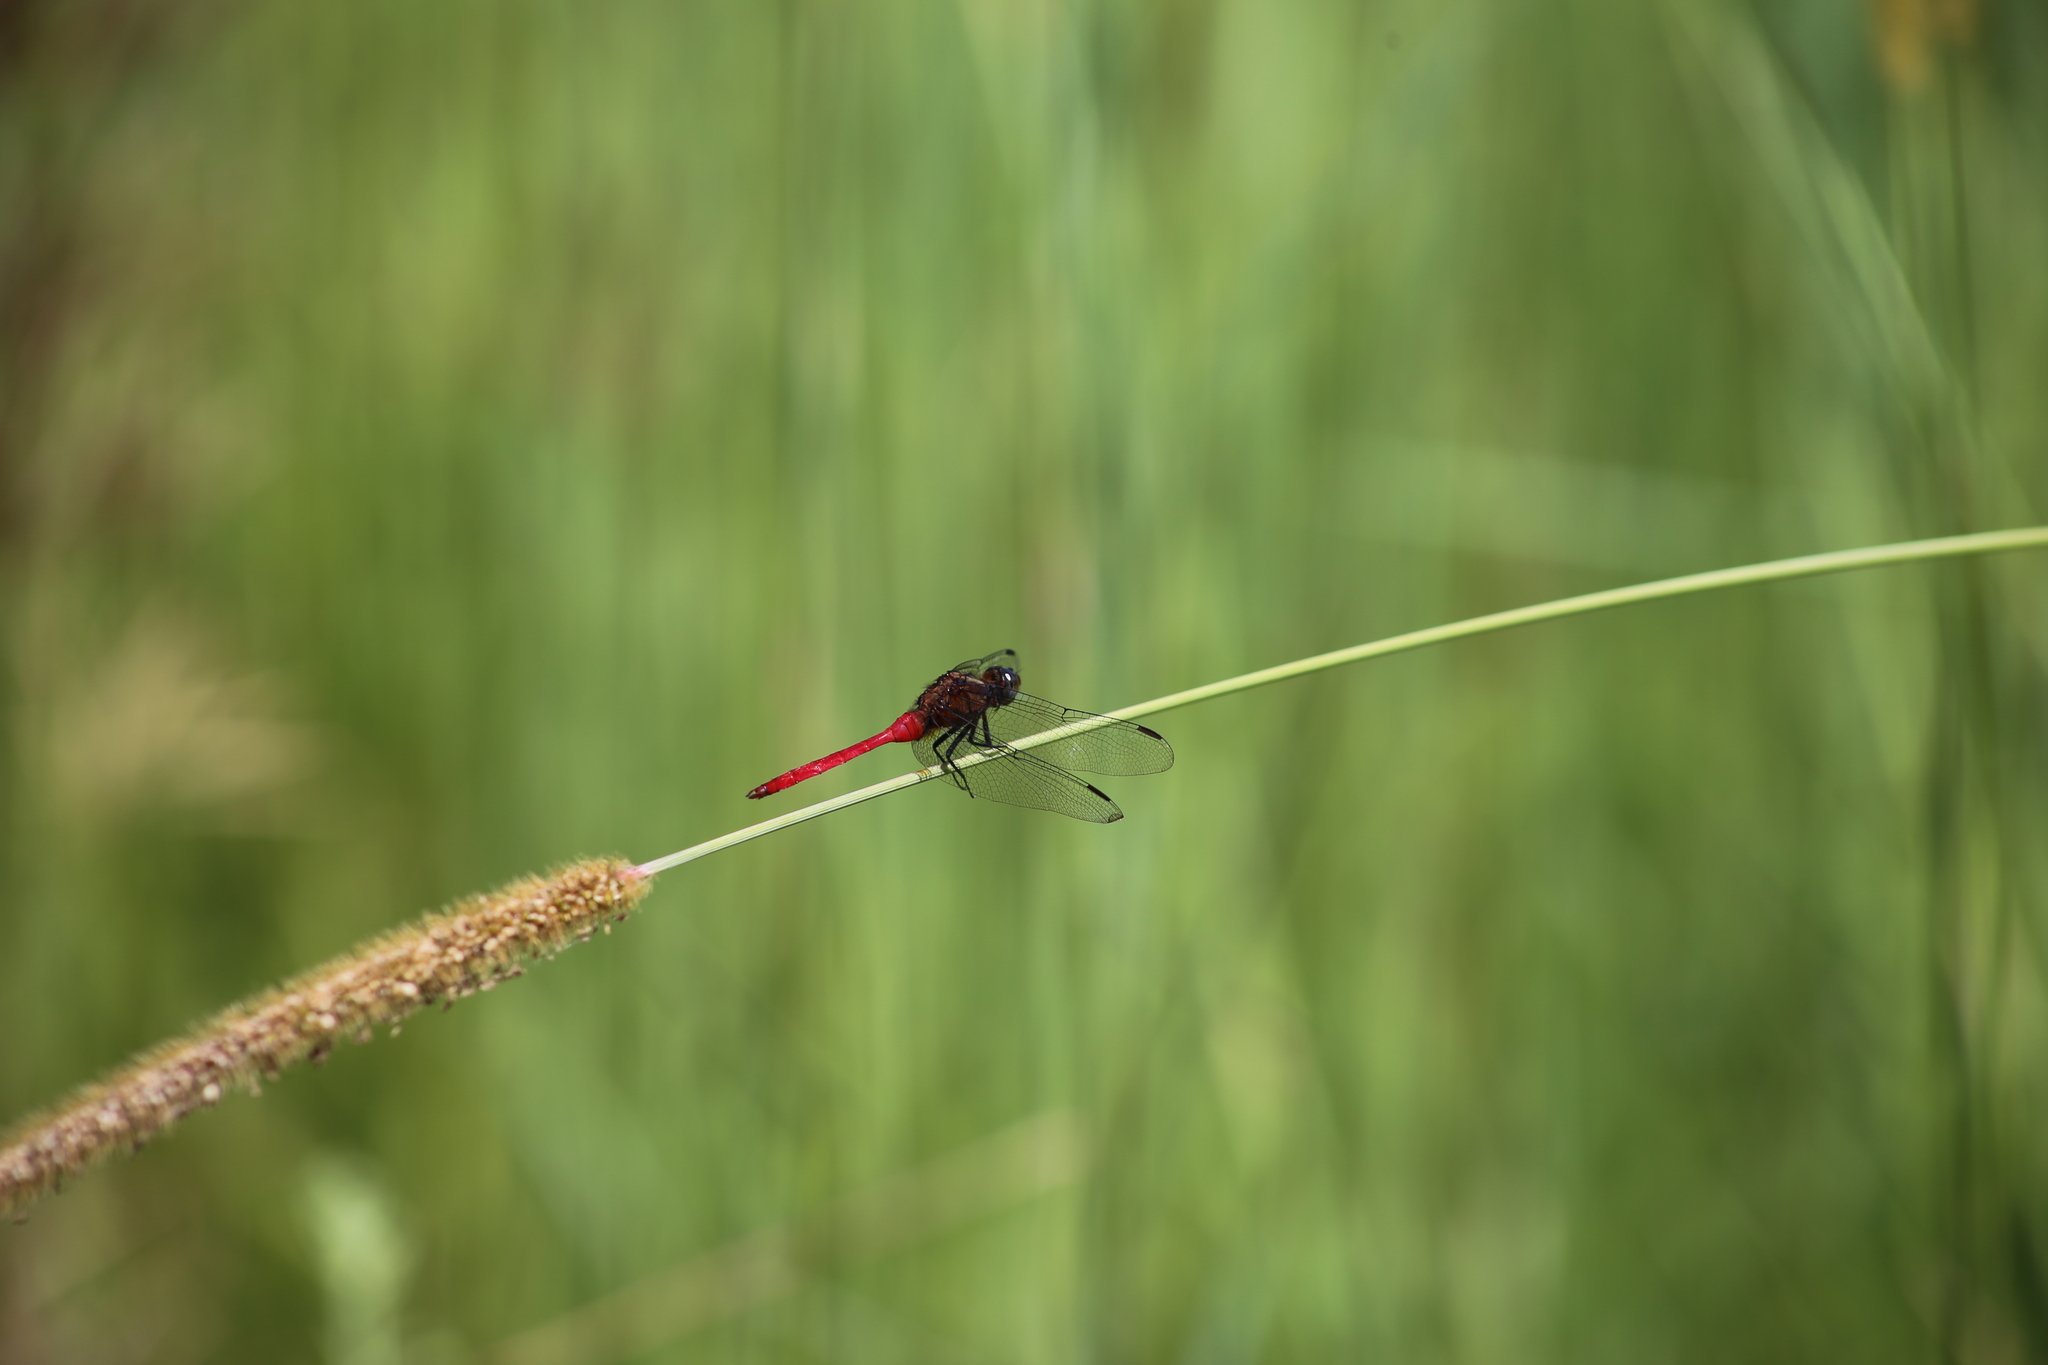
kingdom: Animalia
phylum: Arthropoda
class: Insecta
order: Odonata
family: Libellulidae
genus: Orthetrum
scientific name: Orthetrum villosovittatum
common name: Firery skimmer
